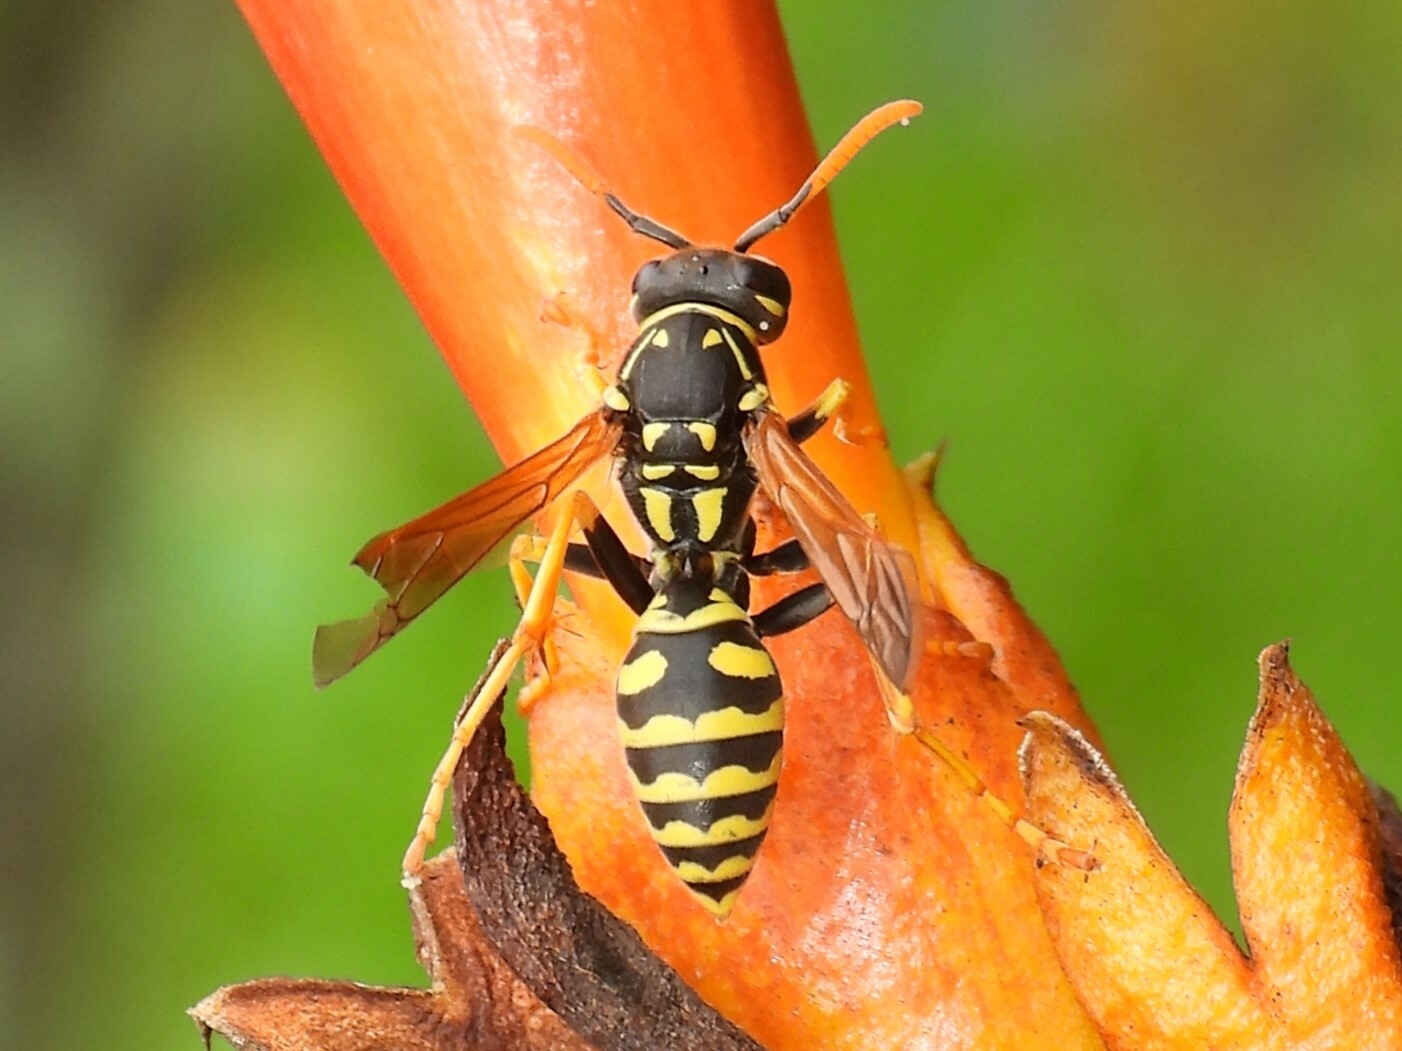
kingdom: Animalia
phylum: Arthropoda
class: Insecta
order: Hymenoptera
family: Eumenidae
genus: Polistes
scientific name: Polistes dominula
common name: Paper wasp
